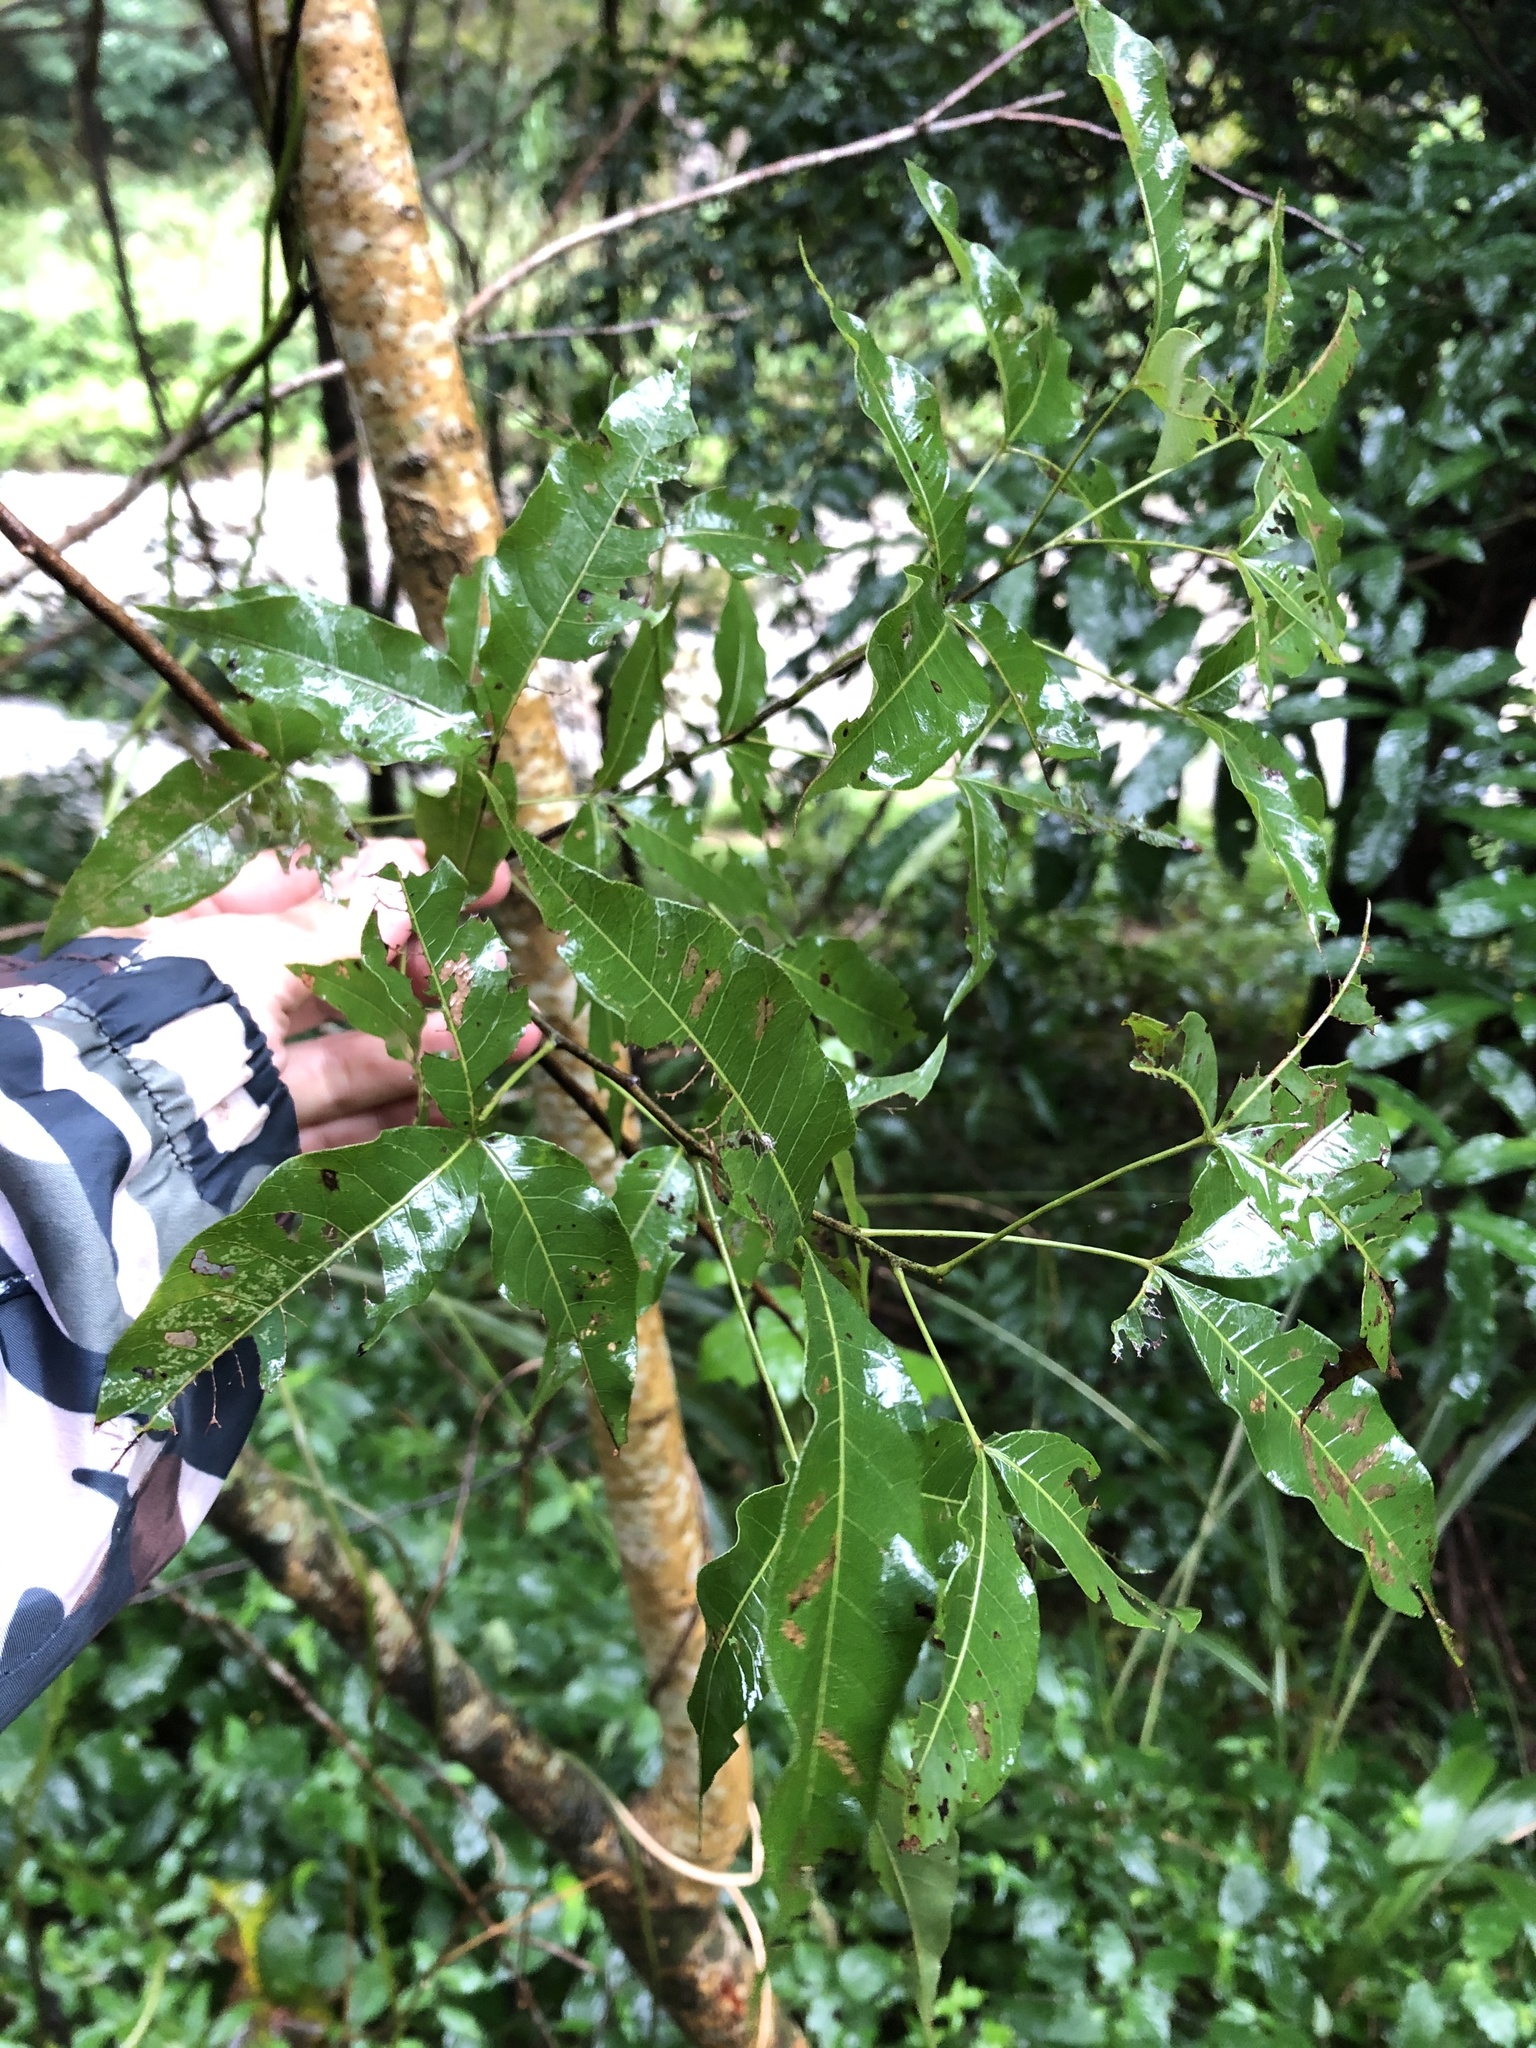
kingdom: Plantae
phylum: Tracheophyta
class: Magnoliopsida
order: Sapindales
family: Anacardiaceae
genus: Searsia
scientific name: Searsia chirindensis
